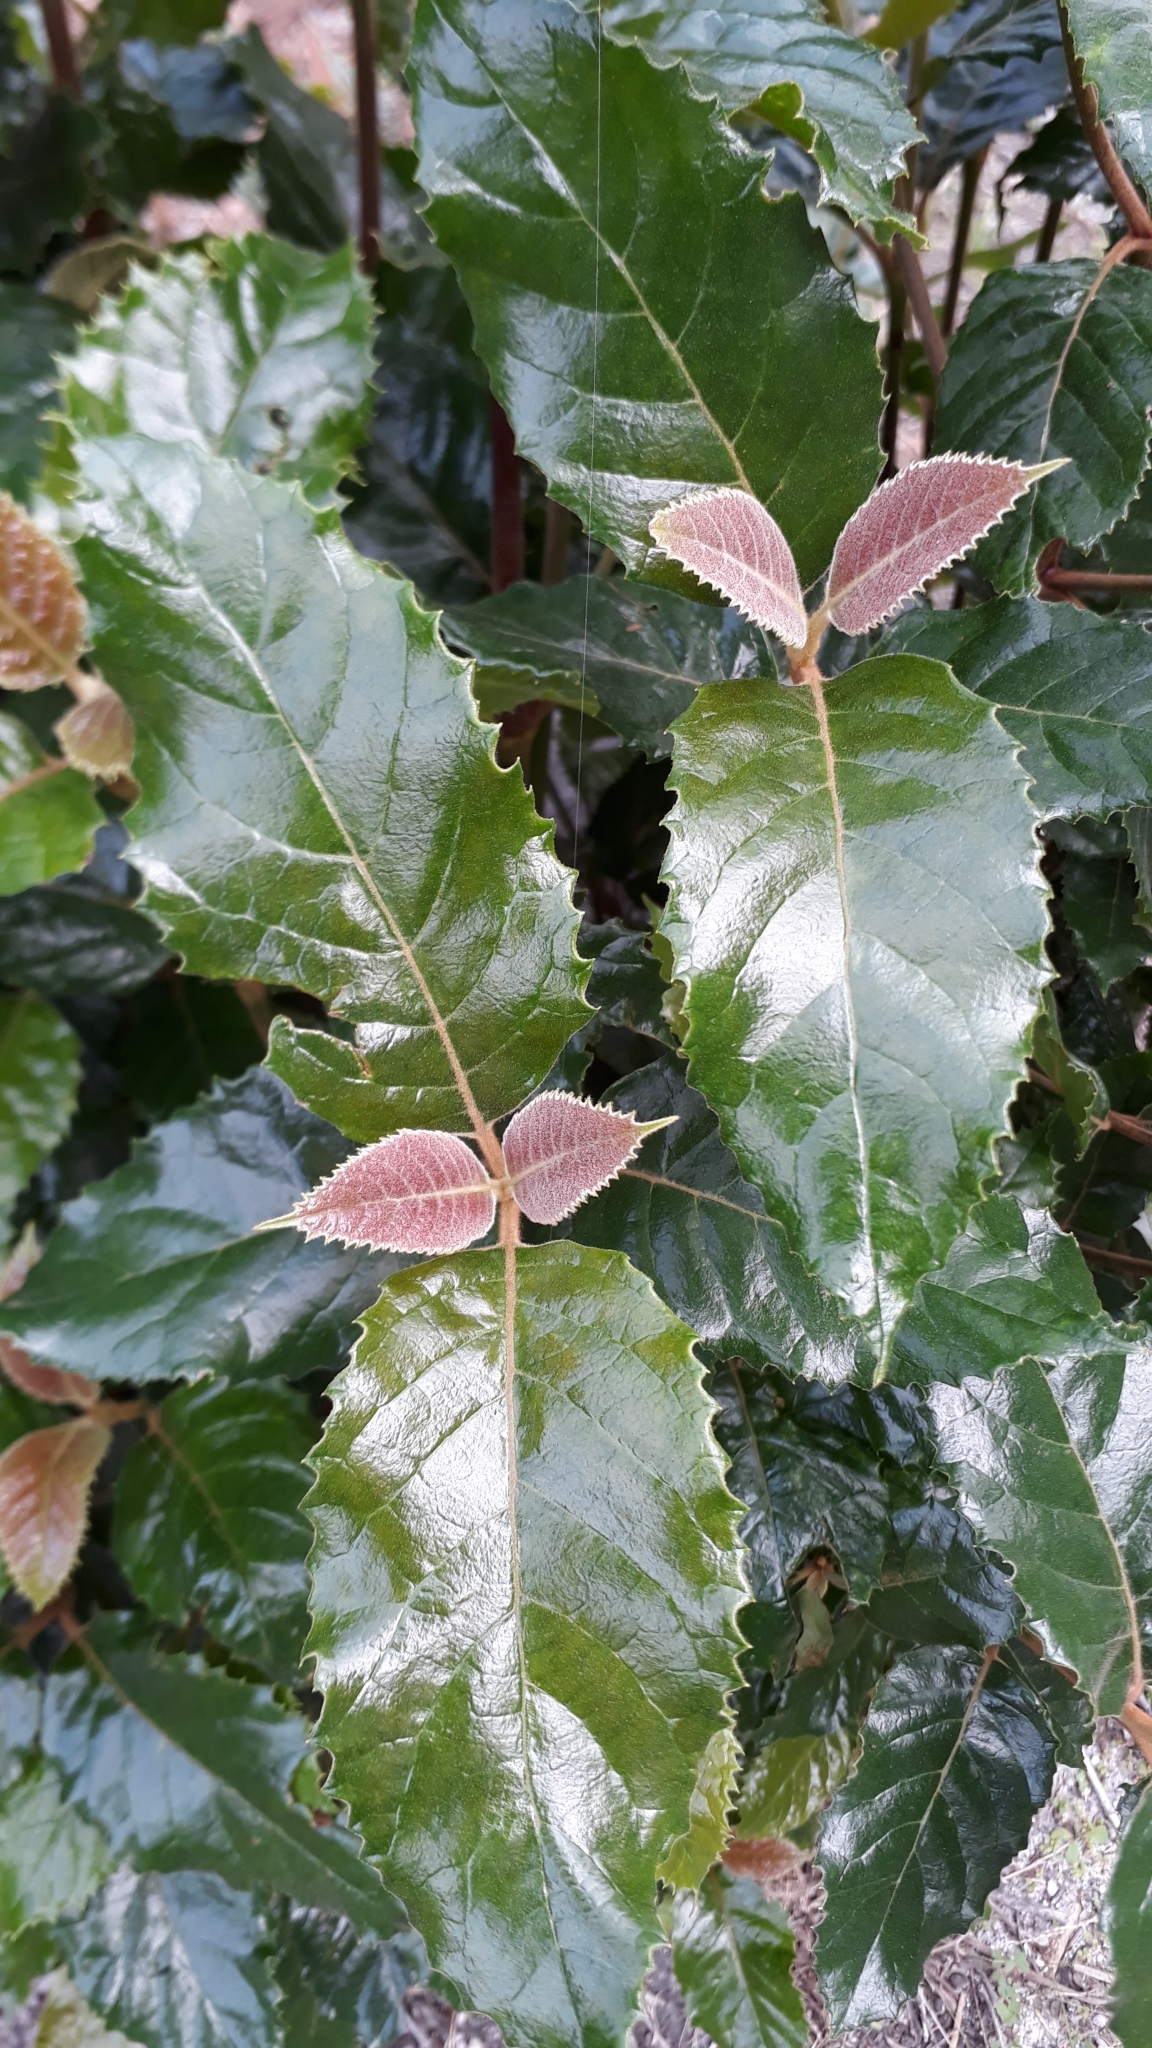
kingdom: Plantae
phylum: Tracheophyta
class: Magnoliopsida
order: Cornales
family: Curtisiaceae
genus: Curtisia
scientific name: Curtisia dentata
